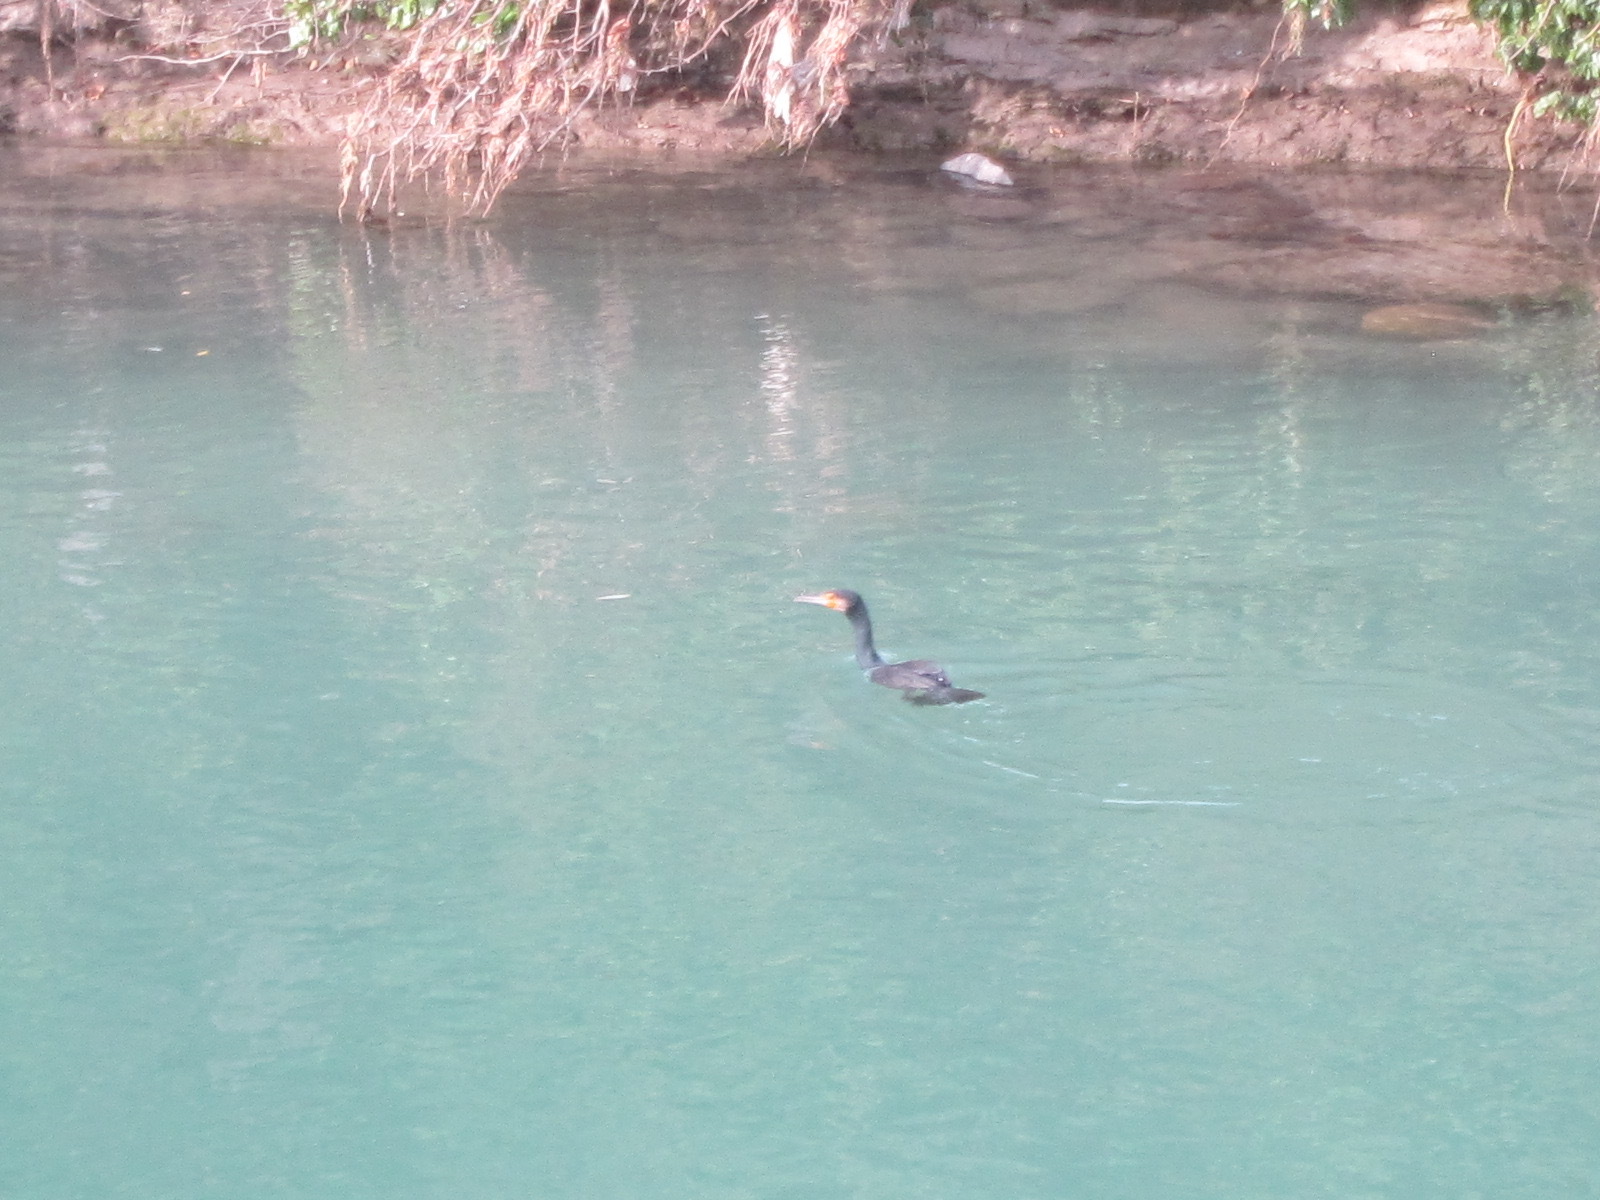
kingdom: Animalia
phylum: Chordata
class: Aves
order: Suliformes
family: Phalacrocoracidae
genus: Phalacrocorax
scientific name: Phalacrocorax carbo
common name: Great cormorant
